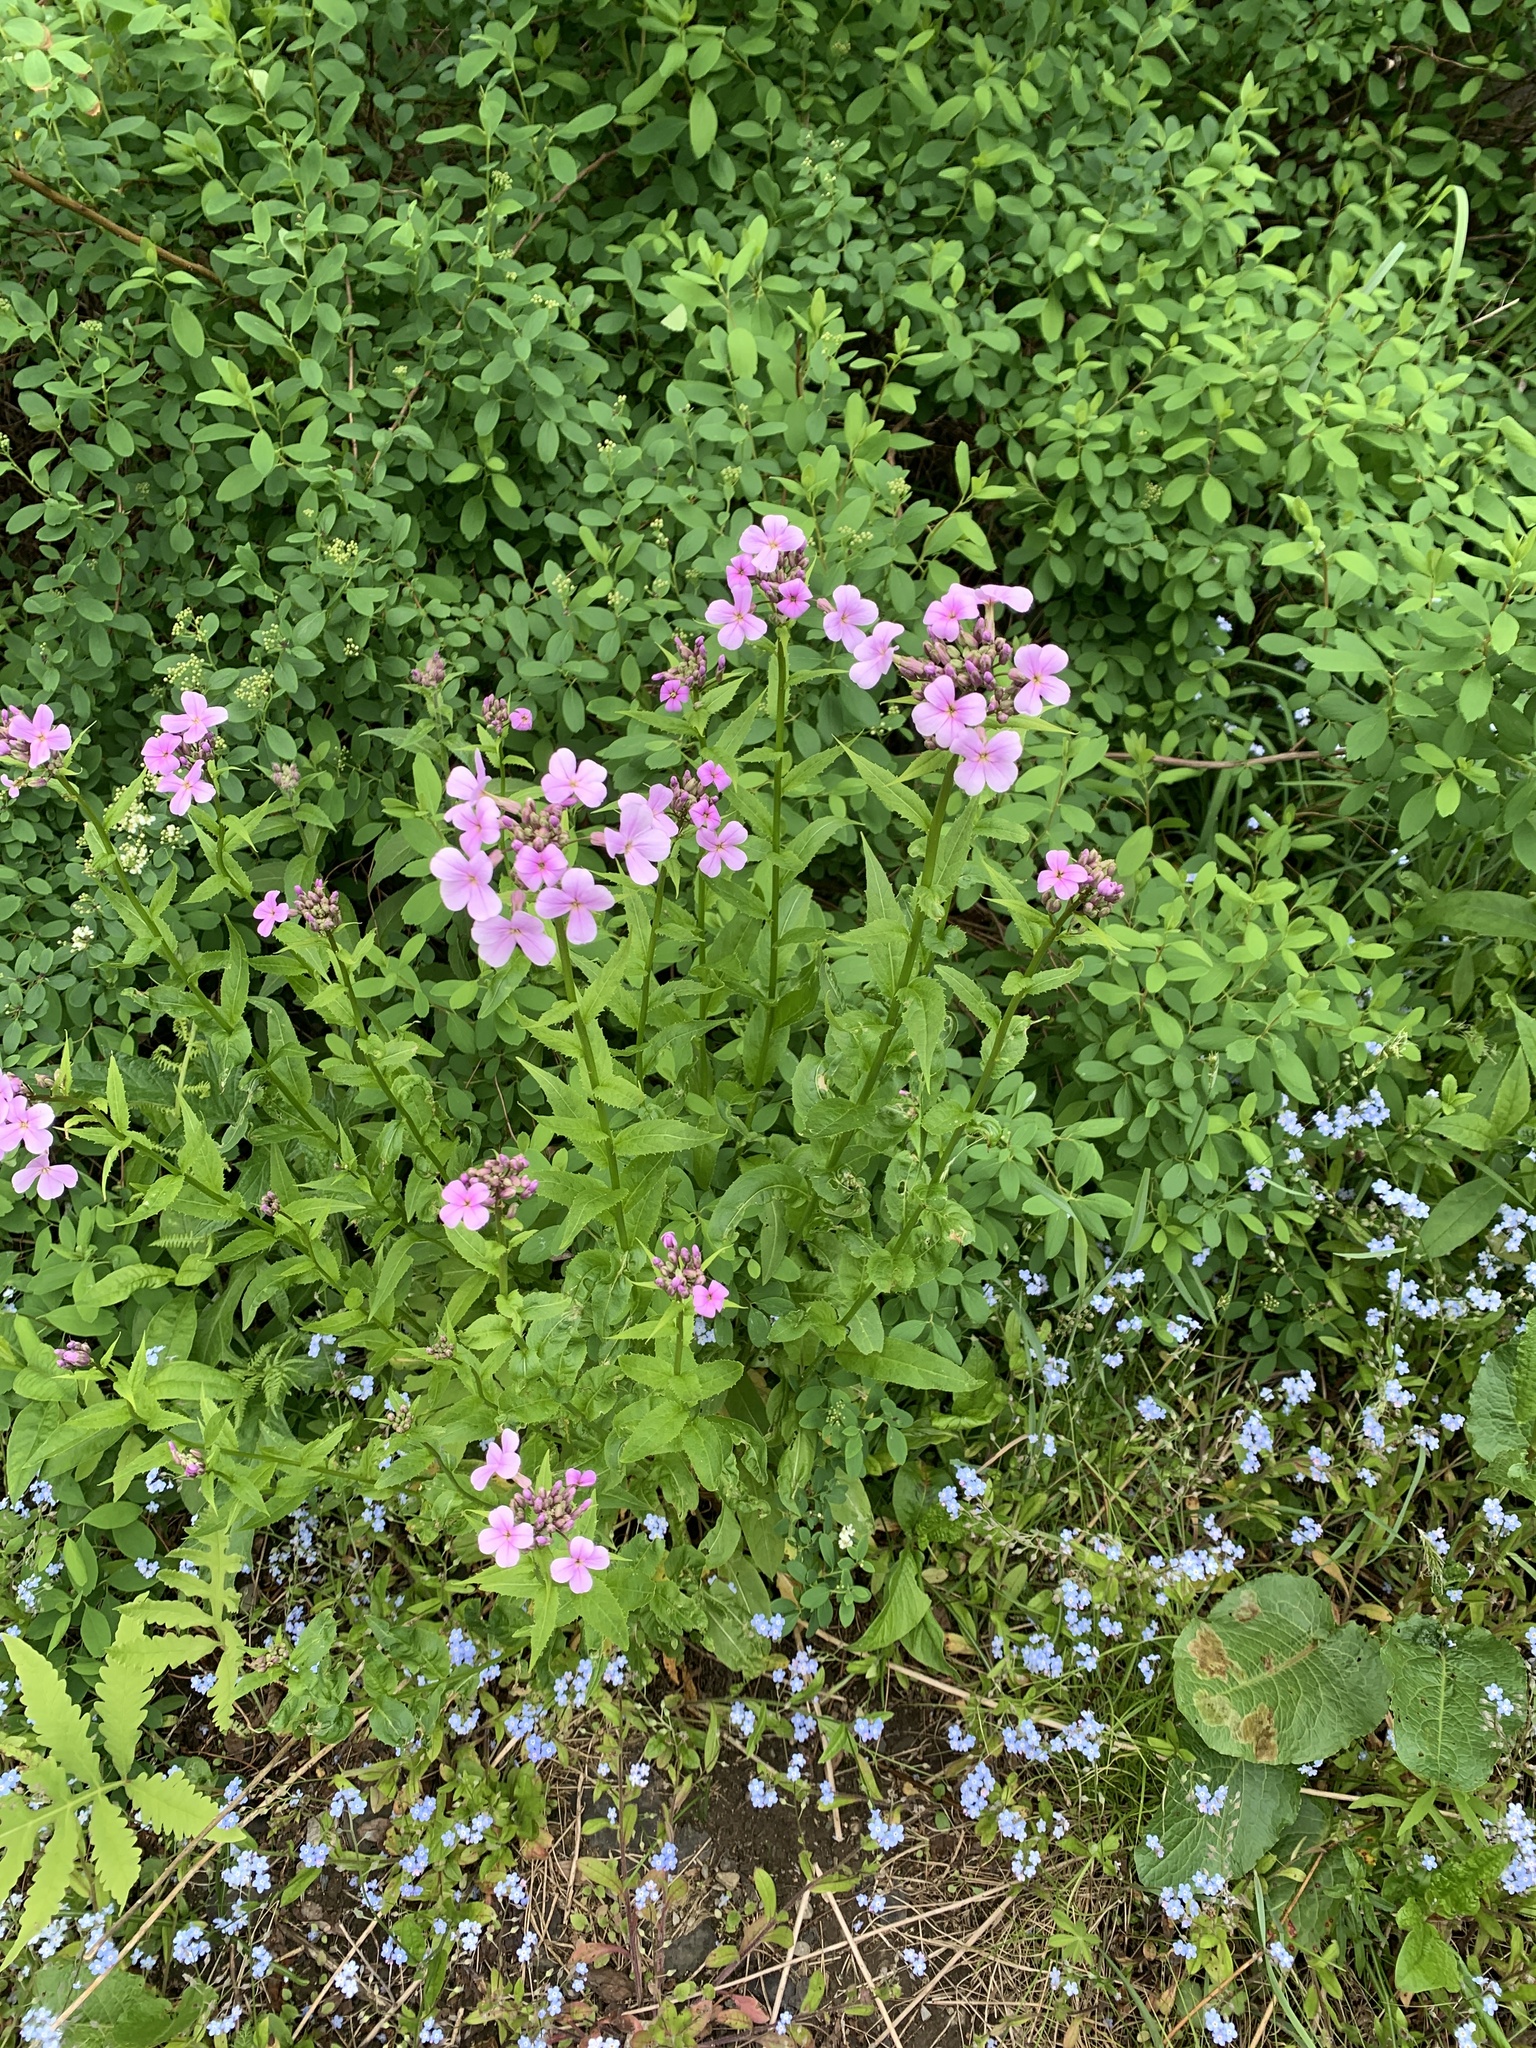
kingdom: Plantae
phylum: Tracheophyta
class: Magnoliopsida
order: Brassicales
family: Brassicaceae
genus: Hesperis
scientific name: Hesperis matronalis
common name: Dame's-violet
